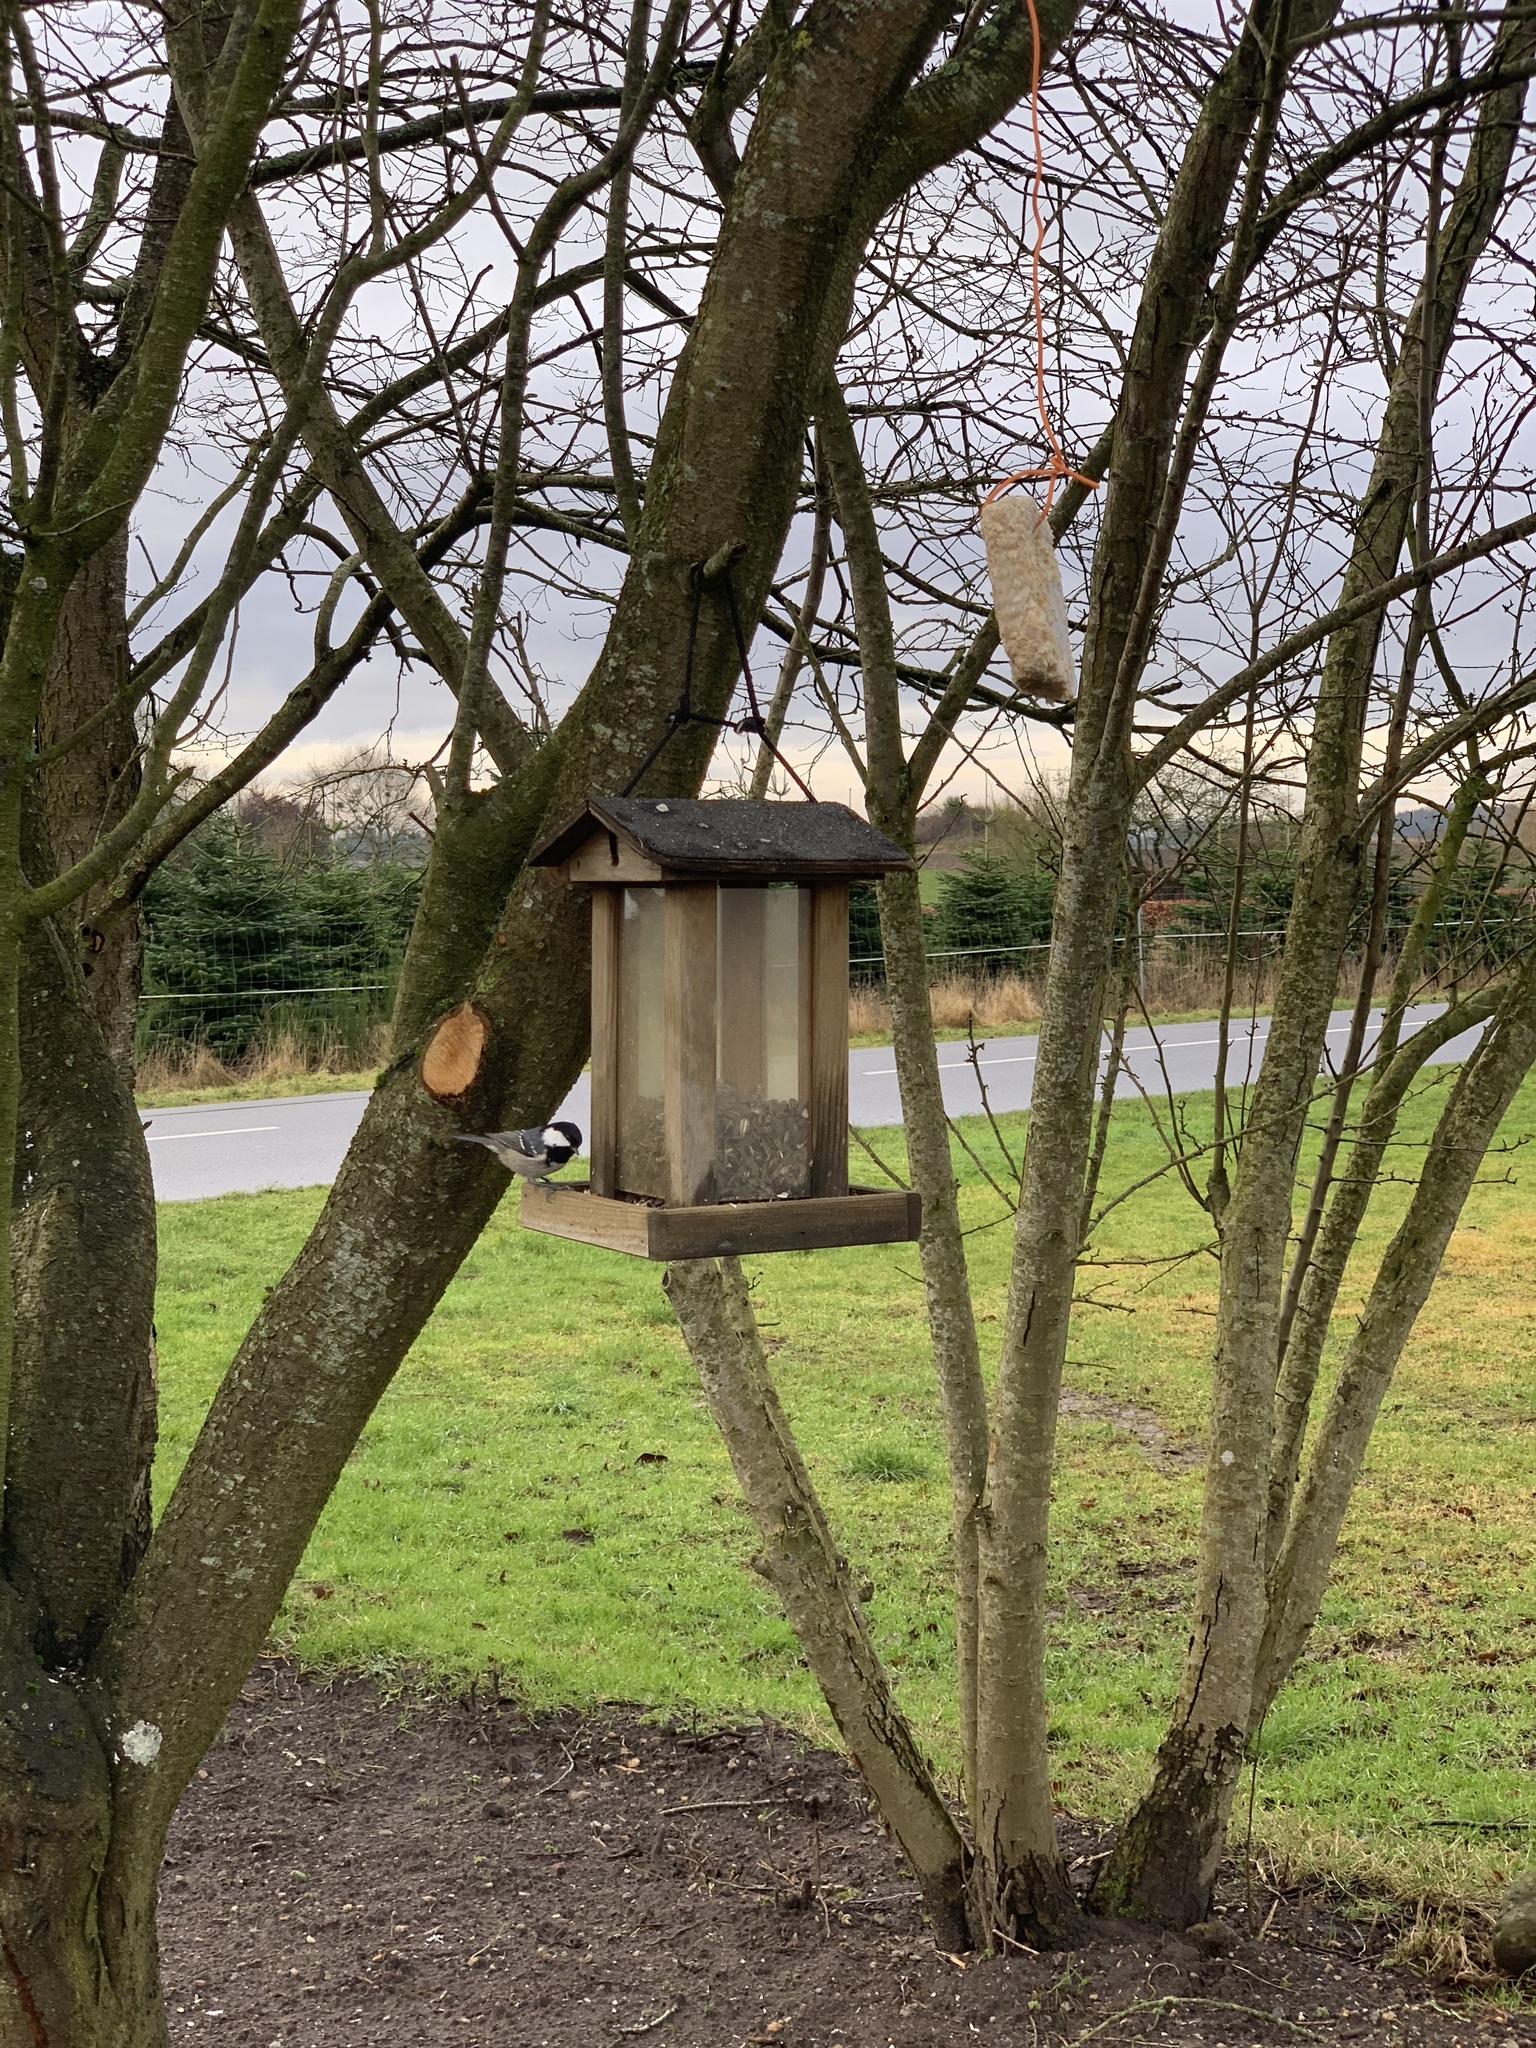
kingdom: Animalia
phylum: Chordata
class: Aves
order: Passeriformes
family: Paridae
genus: Periparus
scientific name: Periparus ater
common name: Coal tit
